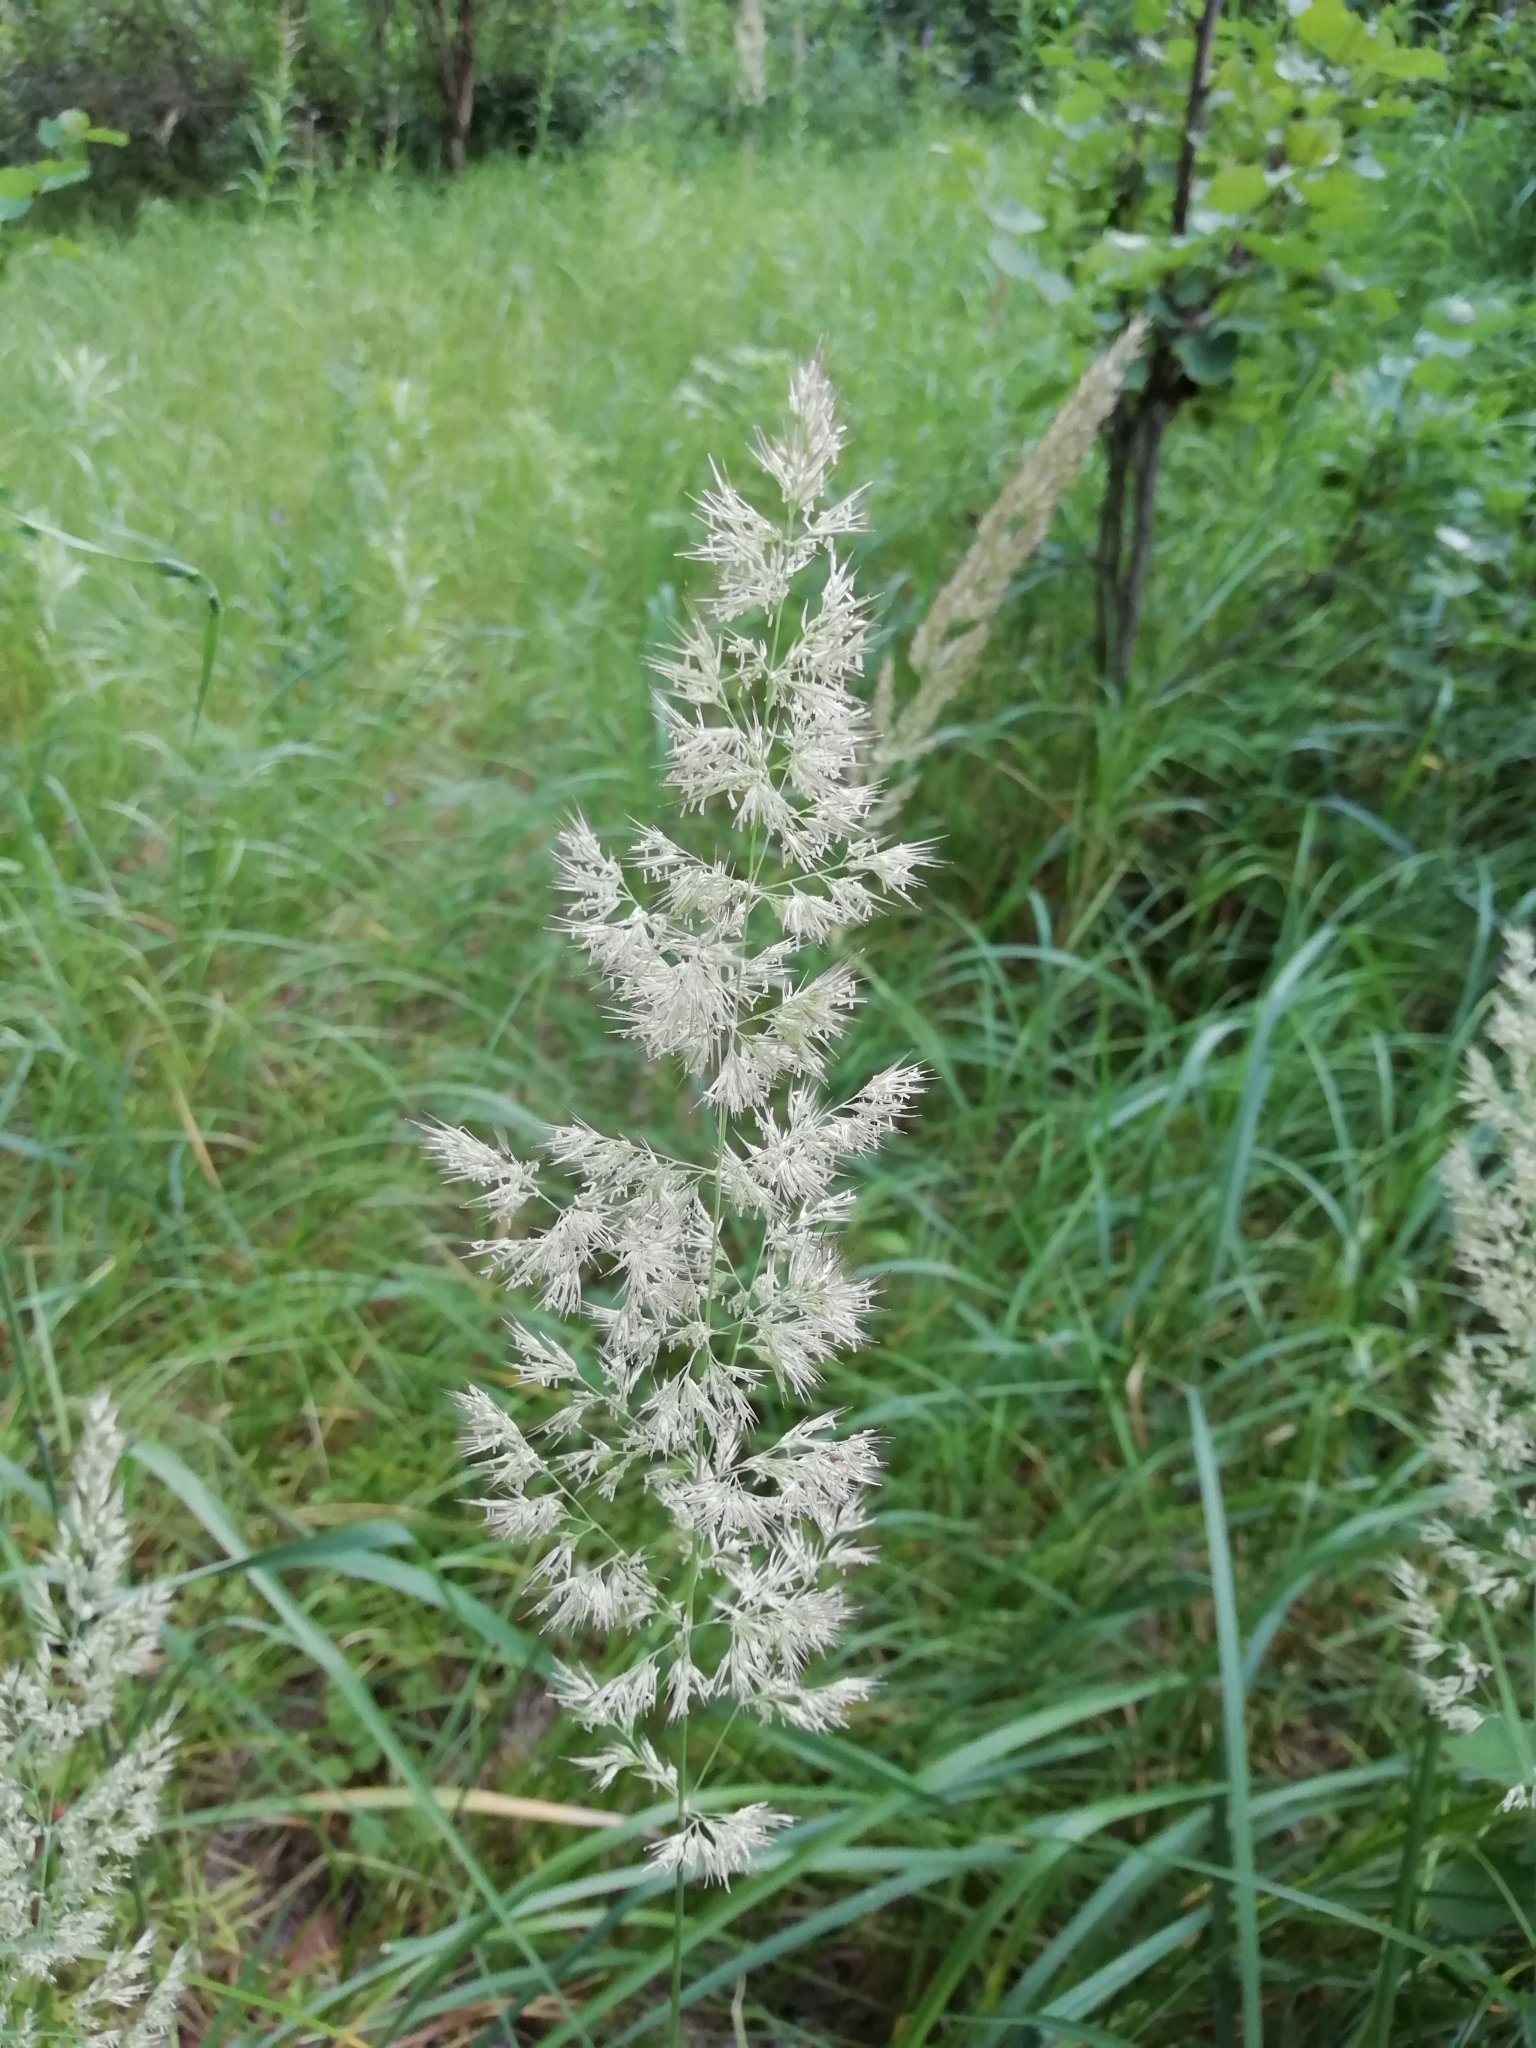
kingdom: Plantae
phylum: Tracheophyta
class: Liliopsida
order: Poales
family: Poaceae
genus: Calamagrostis
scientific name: Calamagrostis epigejos
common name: Wood small-reed
